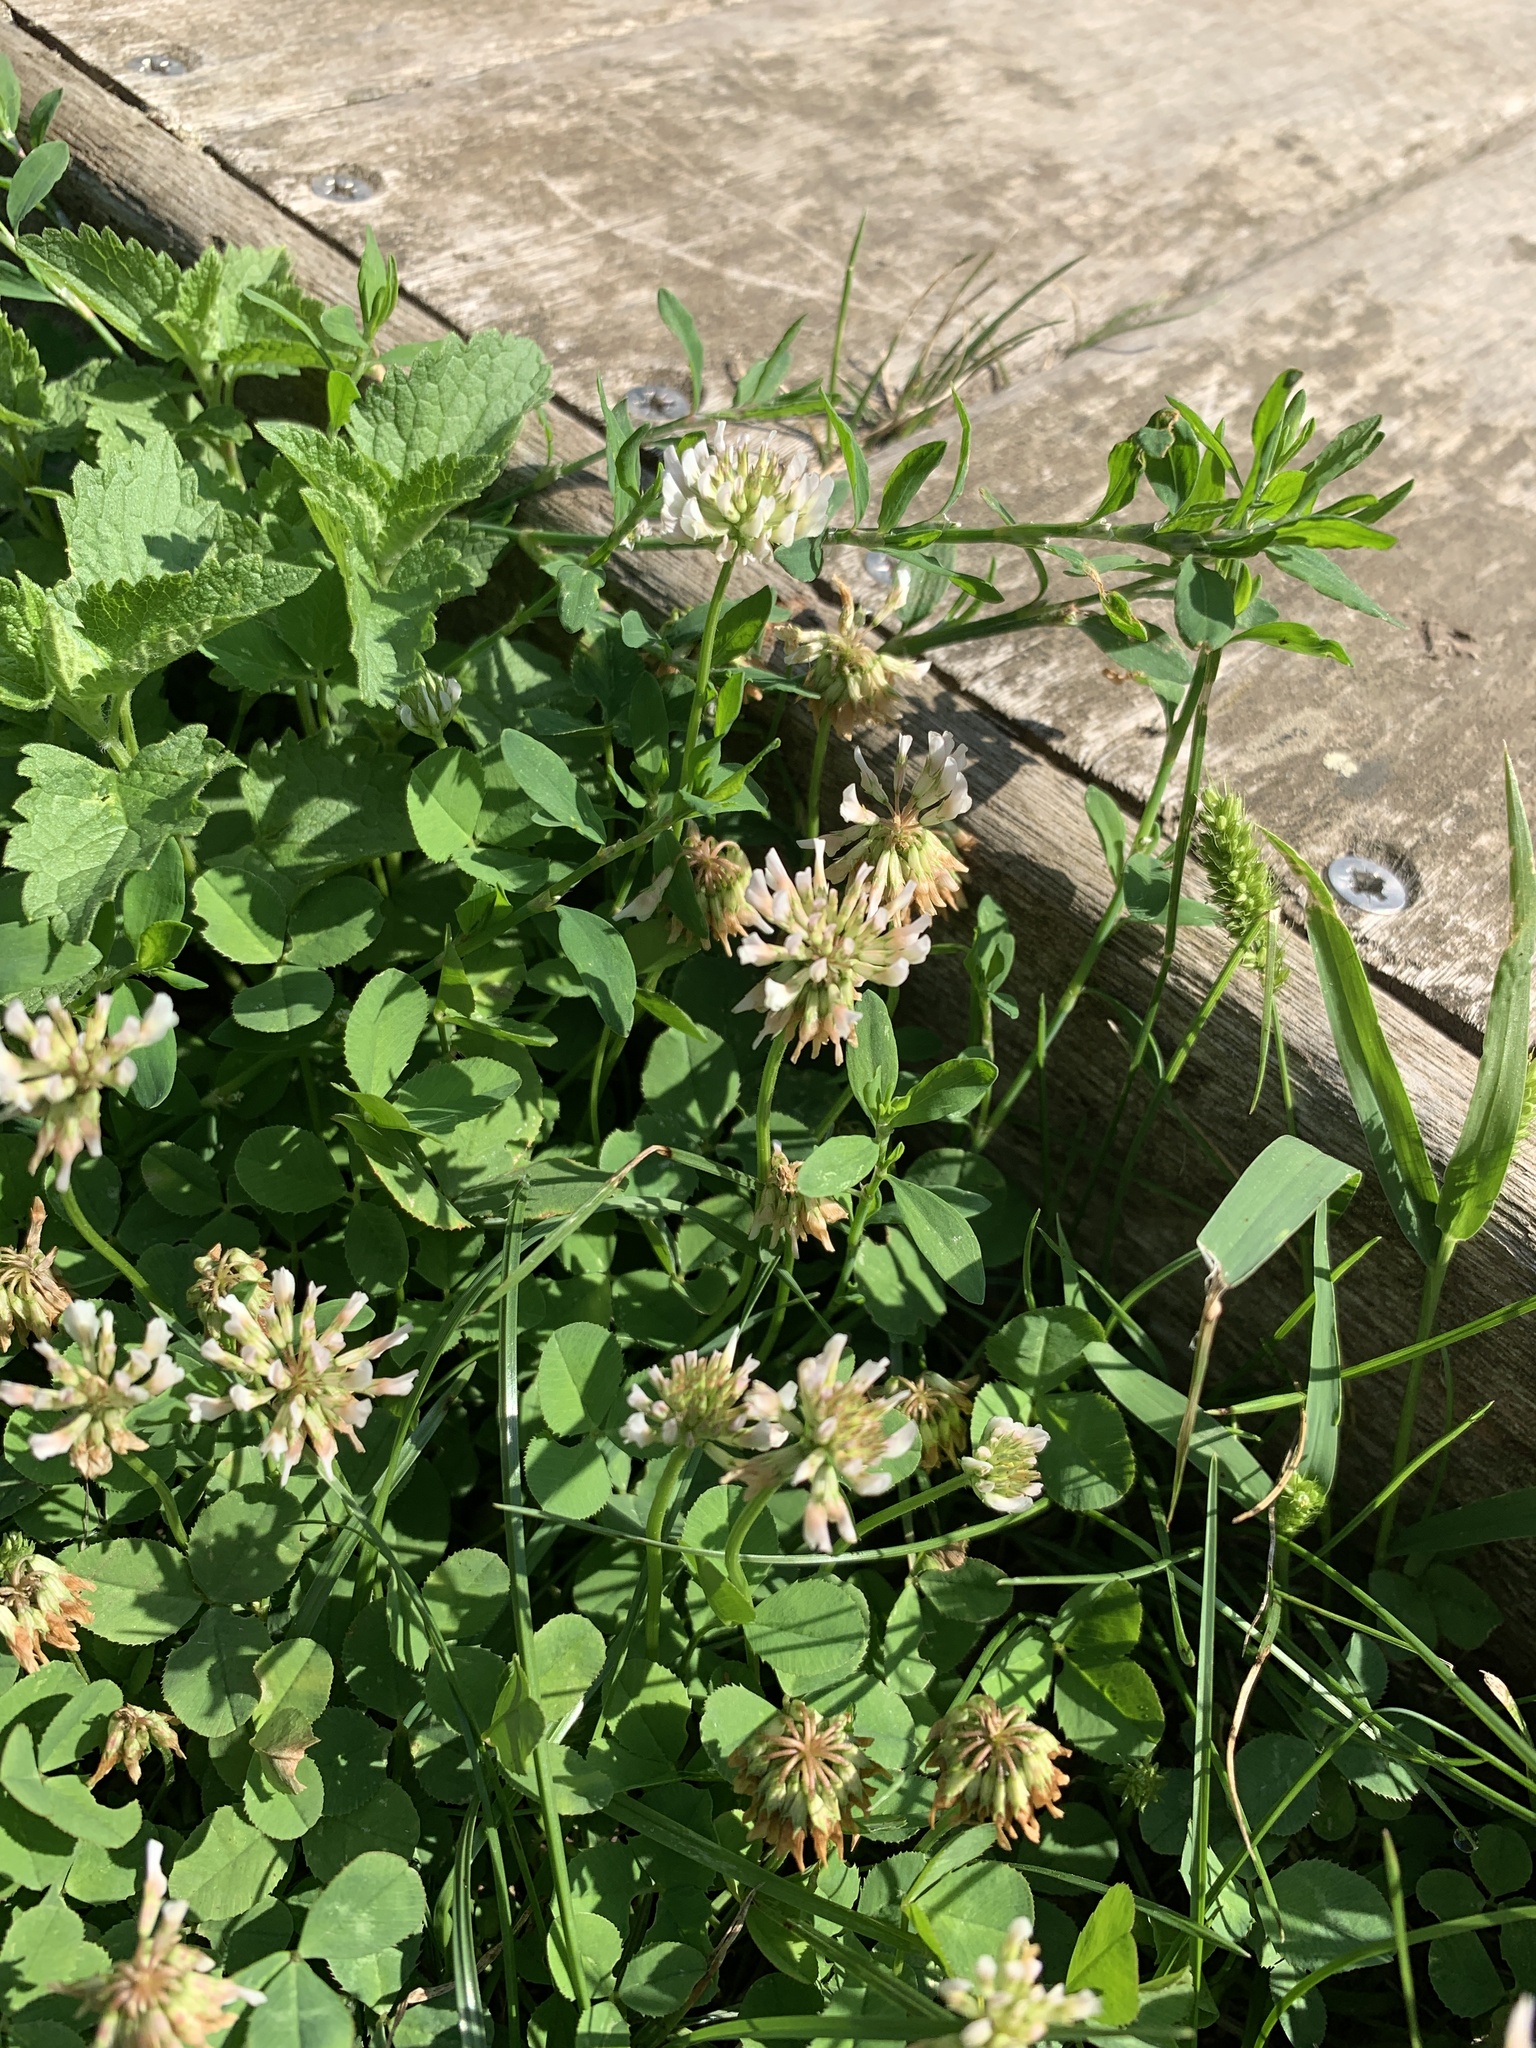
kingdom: Plantae
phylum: Tracheophyta
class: Magnoliopsida
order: Fabales
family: Fabaceae
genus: Trifolium
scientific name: Trifolium repens
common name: White clover
